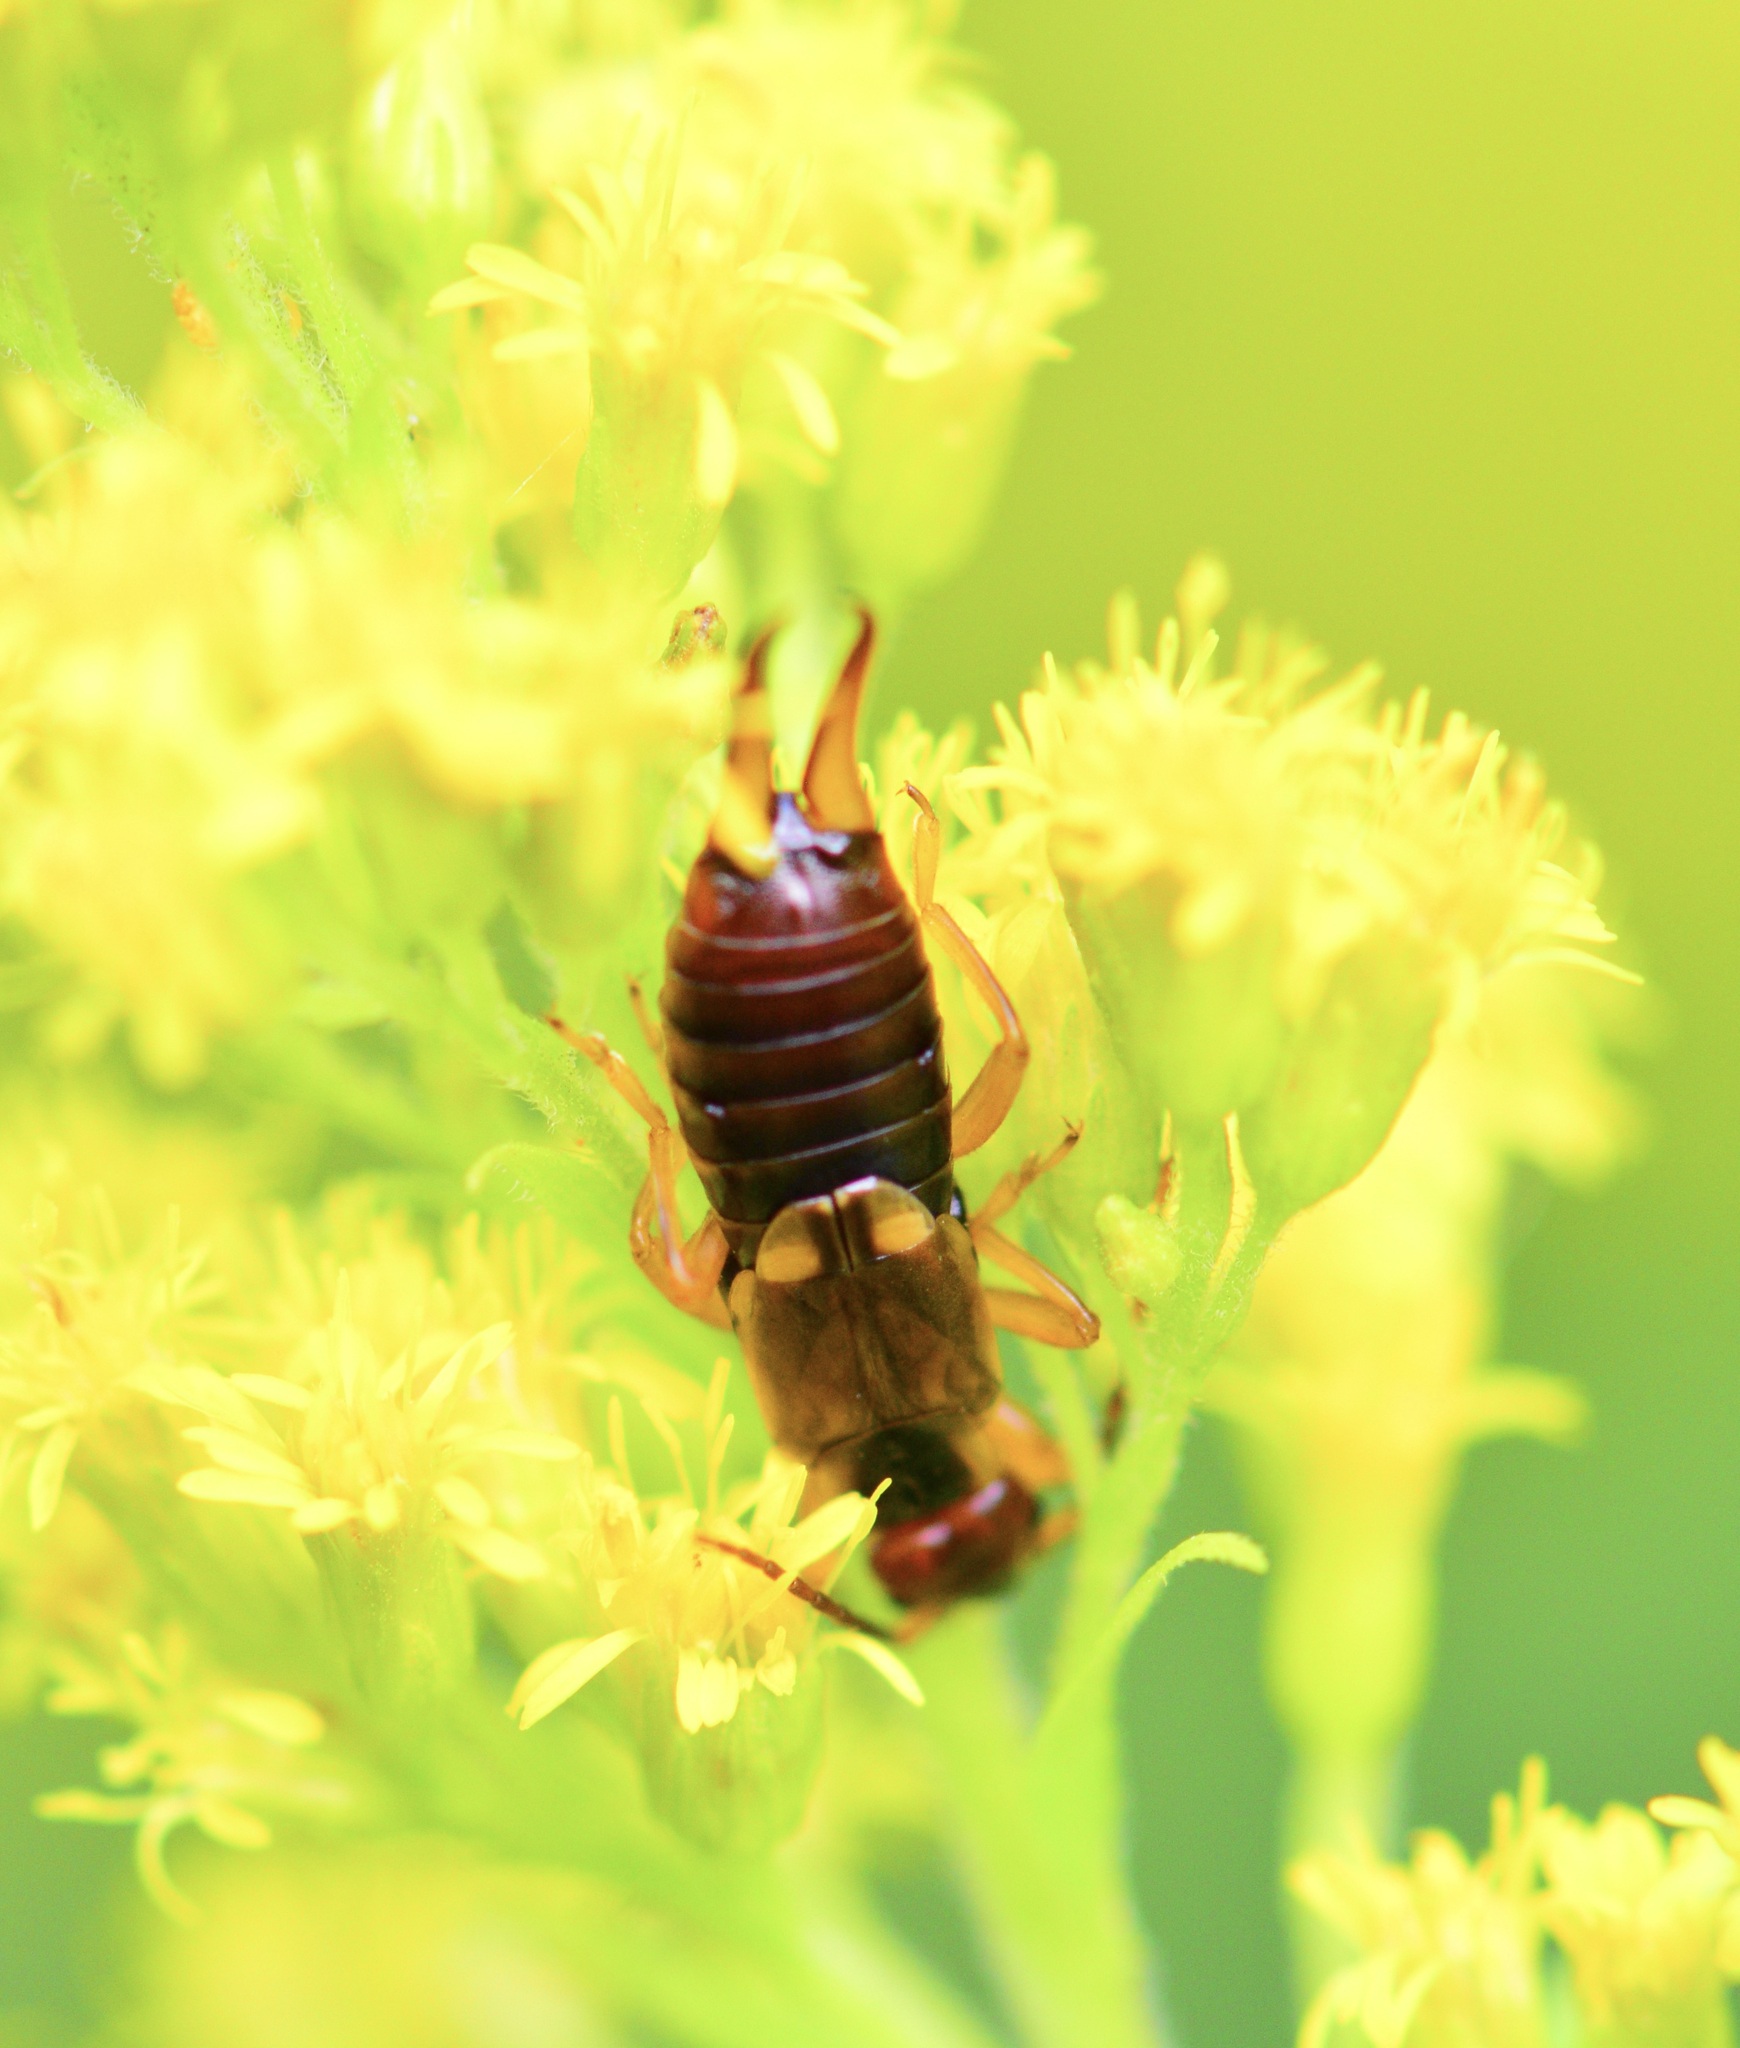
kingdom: Animalia
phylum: Arthropoda
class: Insecta
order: Dermaptera
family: Forficulidae
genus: Forficula
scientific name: Forficula
